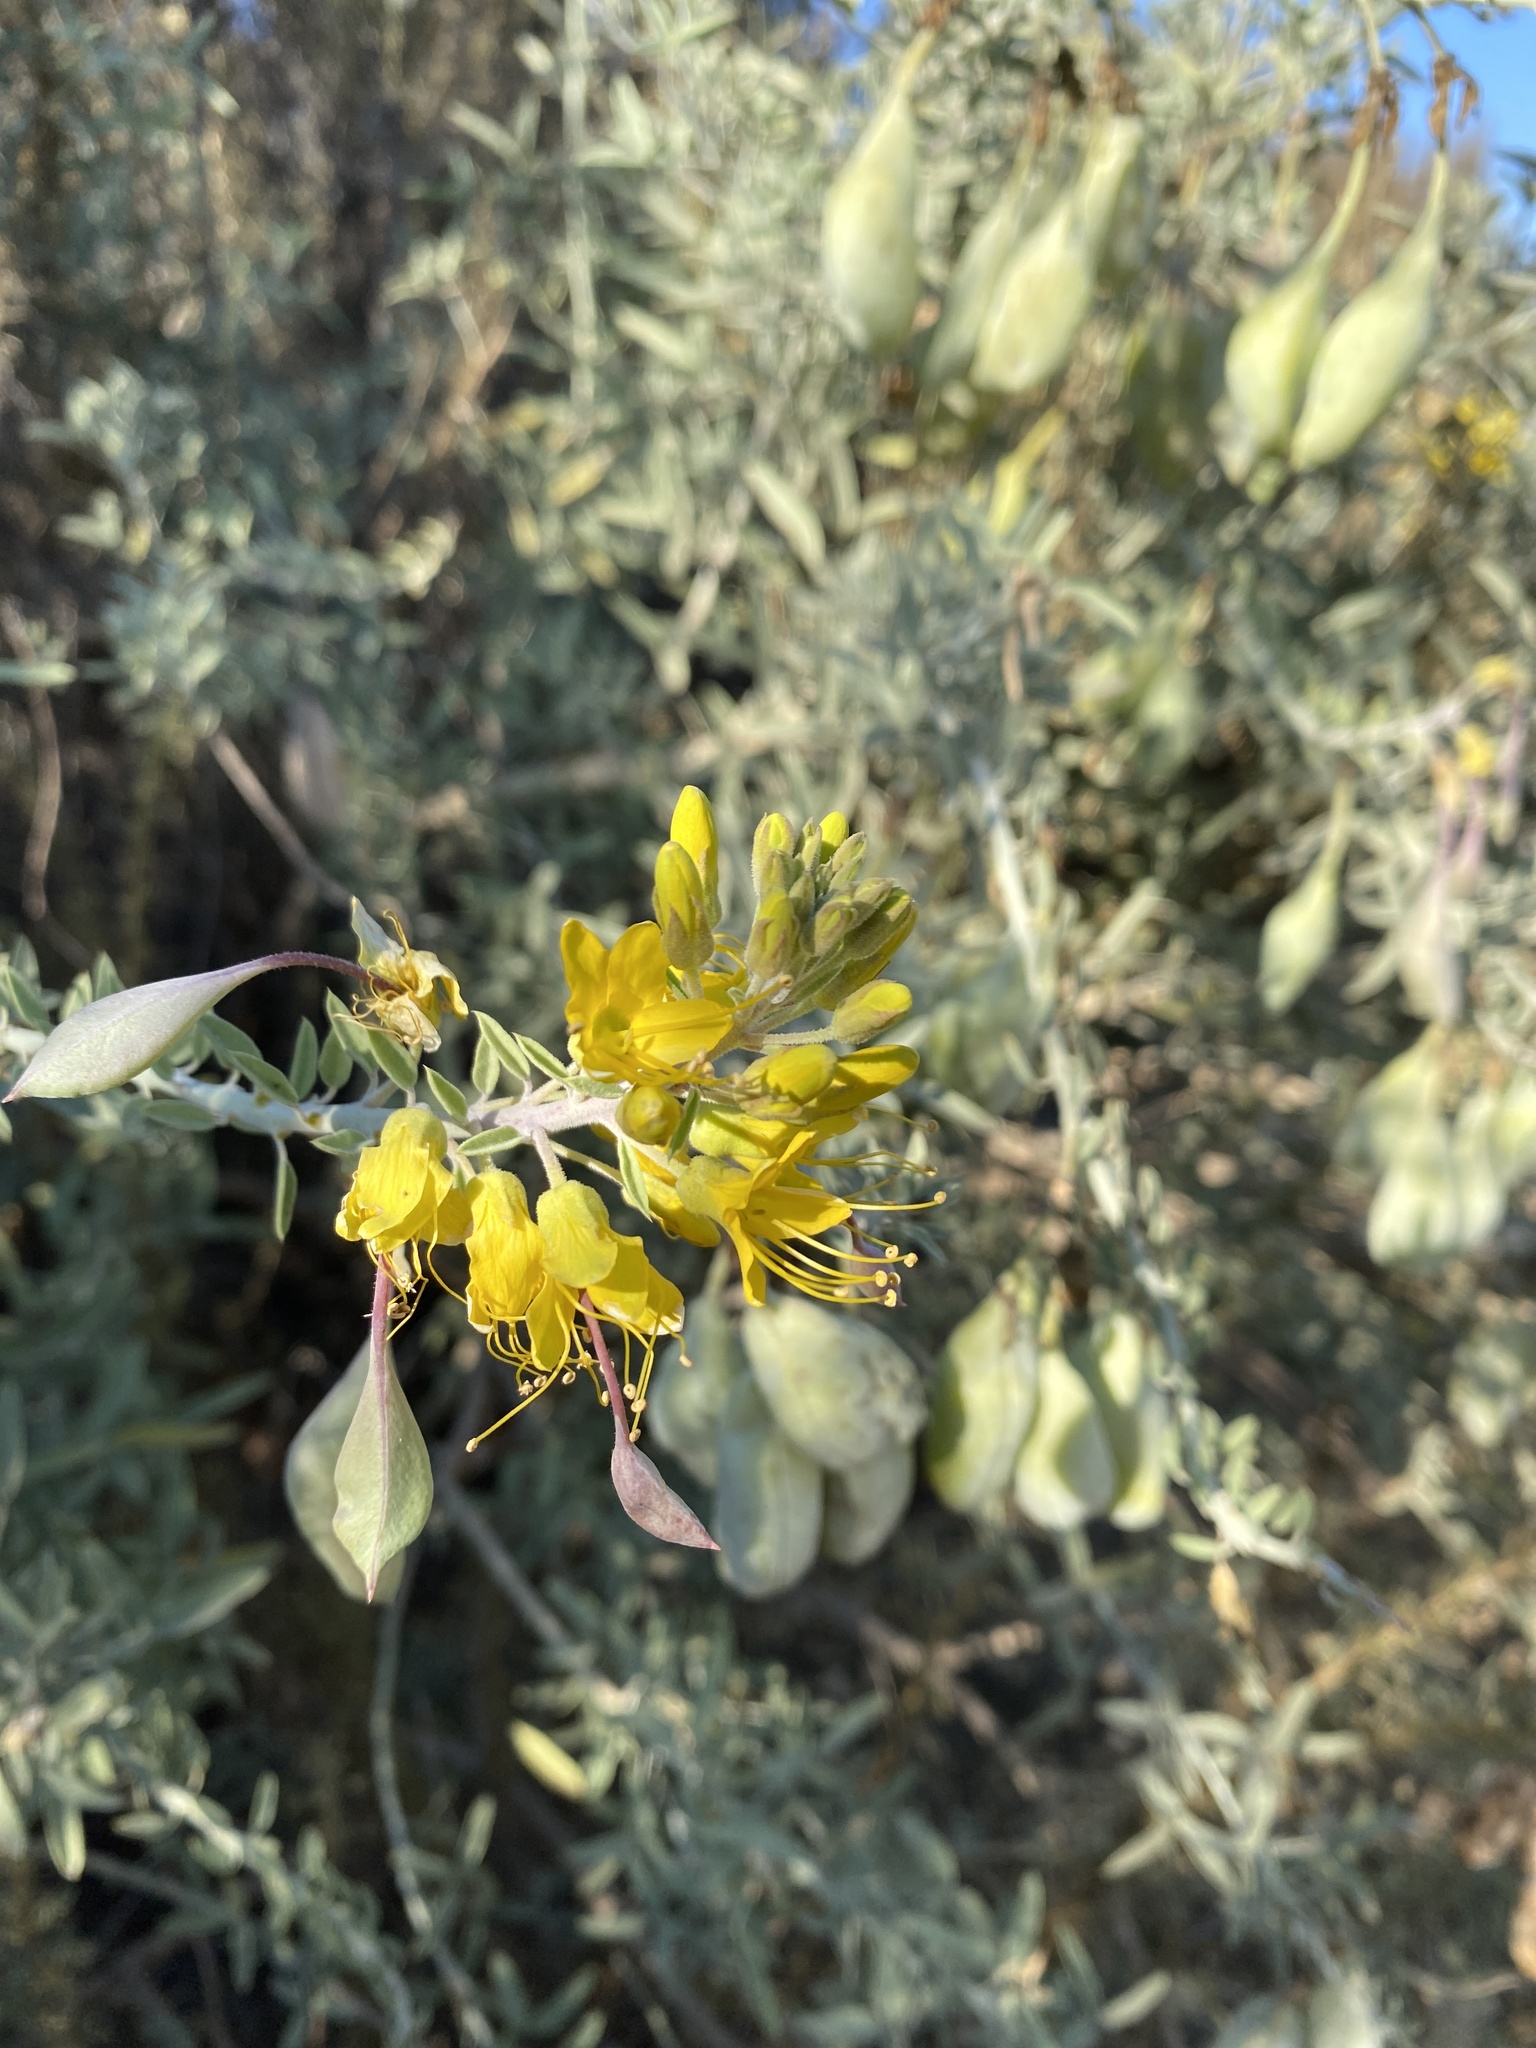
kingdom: Plantae
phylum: Tracheophyta
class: Magnoliopsida
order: Brassicales
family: Cleomaceae
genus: Cleomella
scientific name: Cleomella arborea
